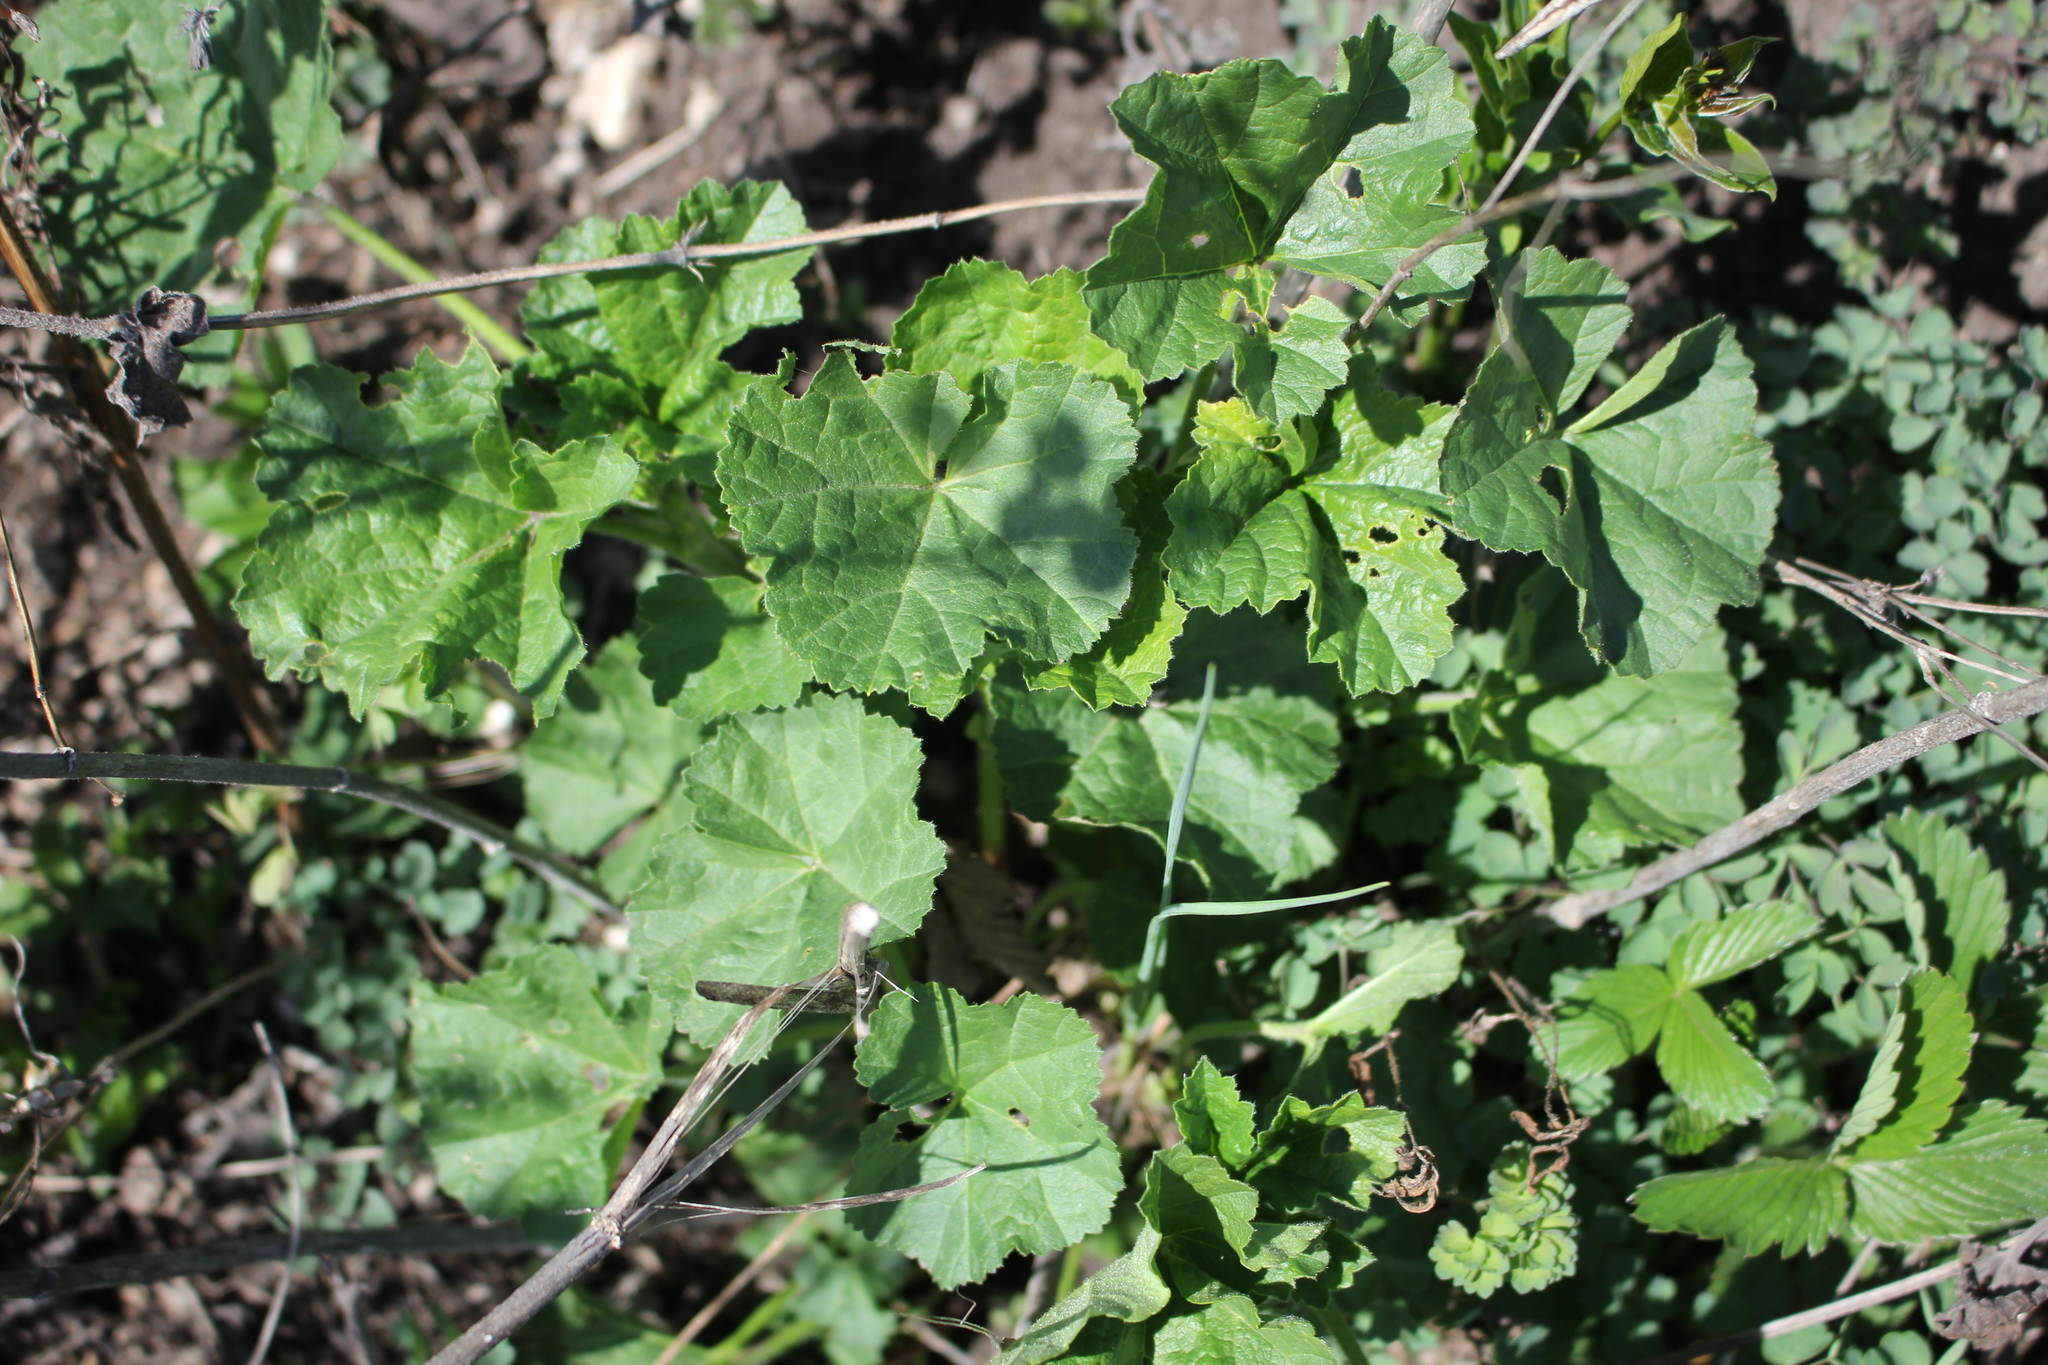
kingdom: Plantae
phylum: Tracheophyta
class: Magnoliopsida
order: Malvales
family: Malvaceae
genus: Malva
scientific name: Malva thuringiaca
